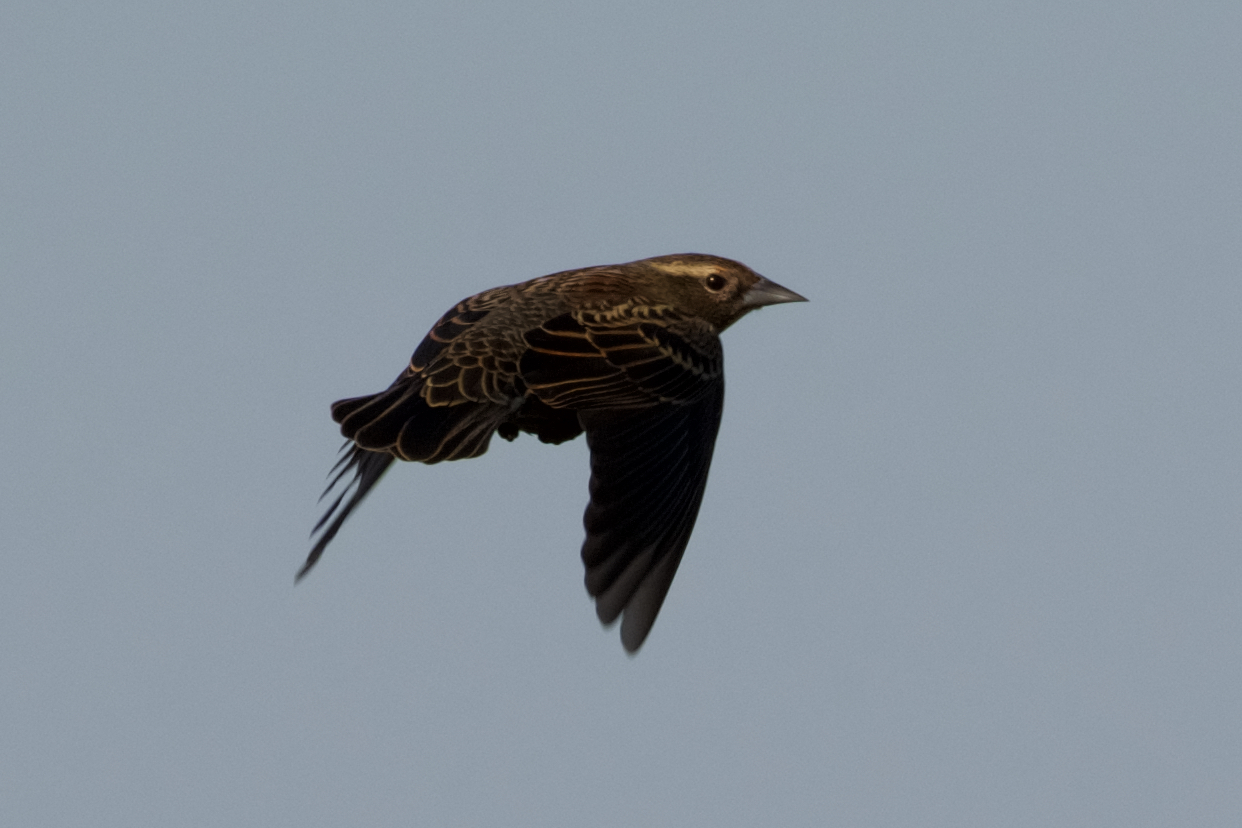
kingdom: Animalia
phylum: Chordata
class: Aves
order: Passeriformes
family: Icteridae
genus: Agelaius
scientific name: Agelaius phoeniceus
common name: Red-winged blackbird
